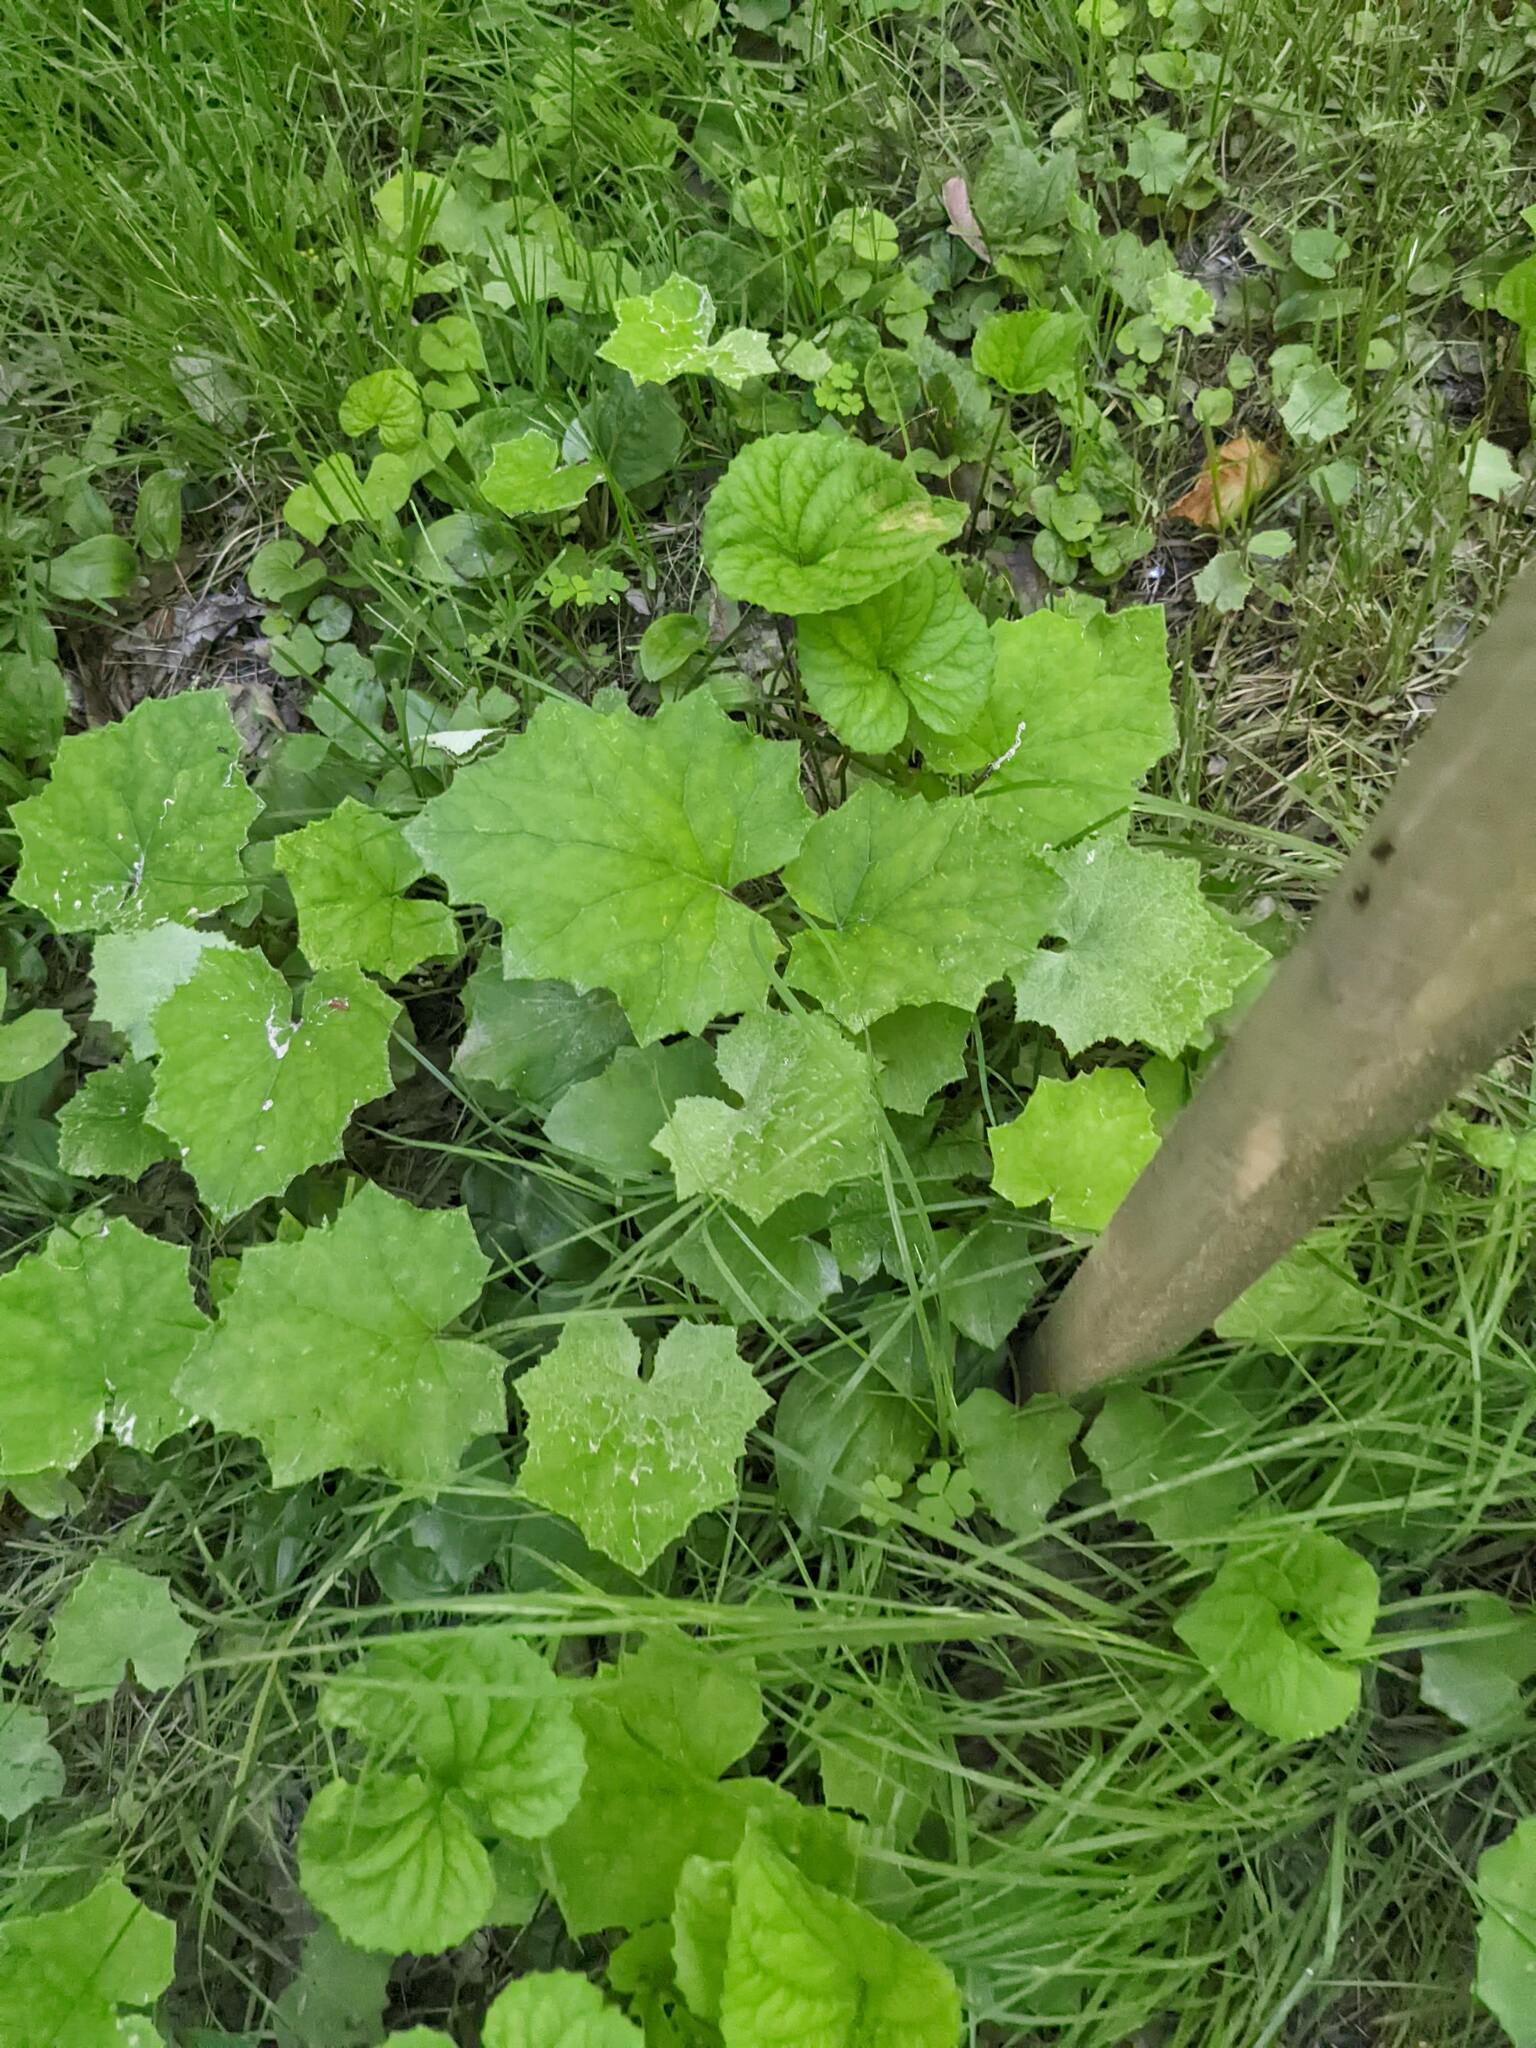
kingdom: Plantae
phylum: Tracheophyta
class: Magnoliopsida
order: Asterales
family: Asteraceae
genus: Tussilago
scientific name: Tussilago farfara
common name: Coltsfoot
